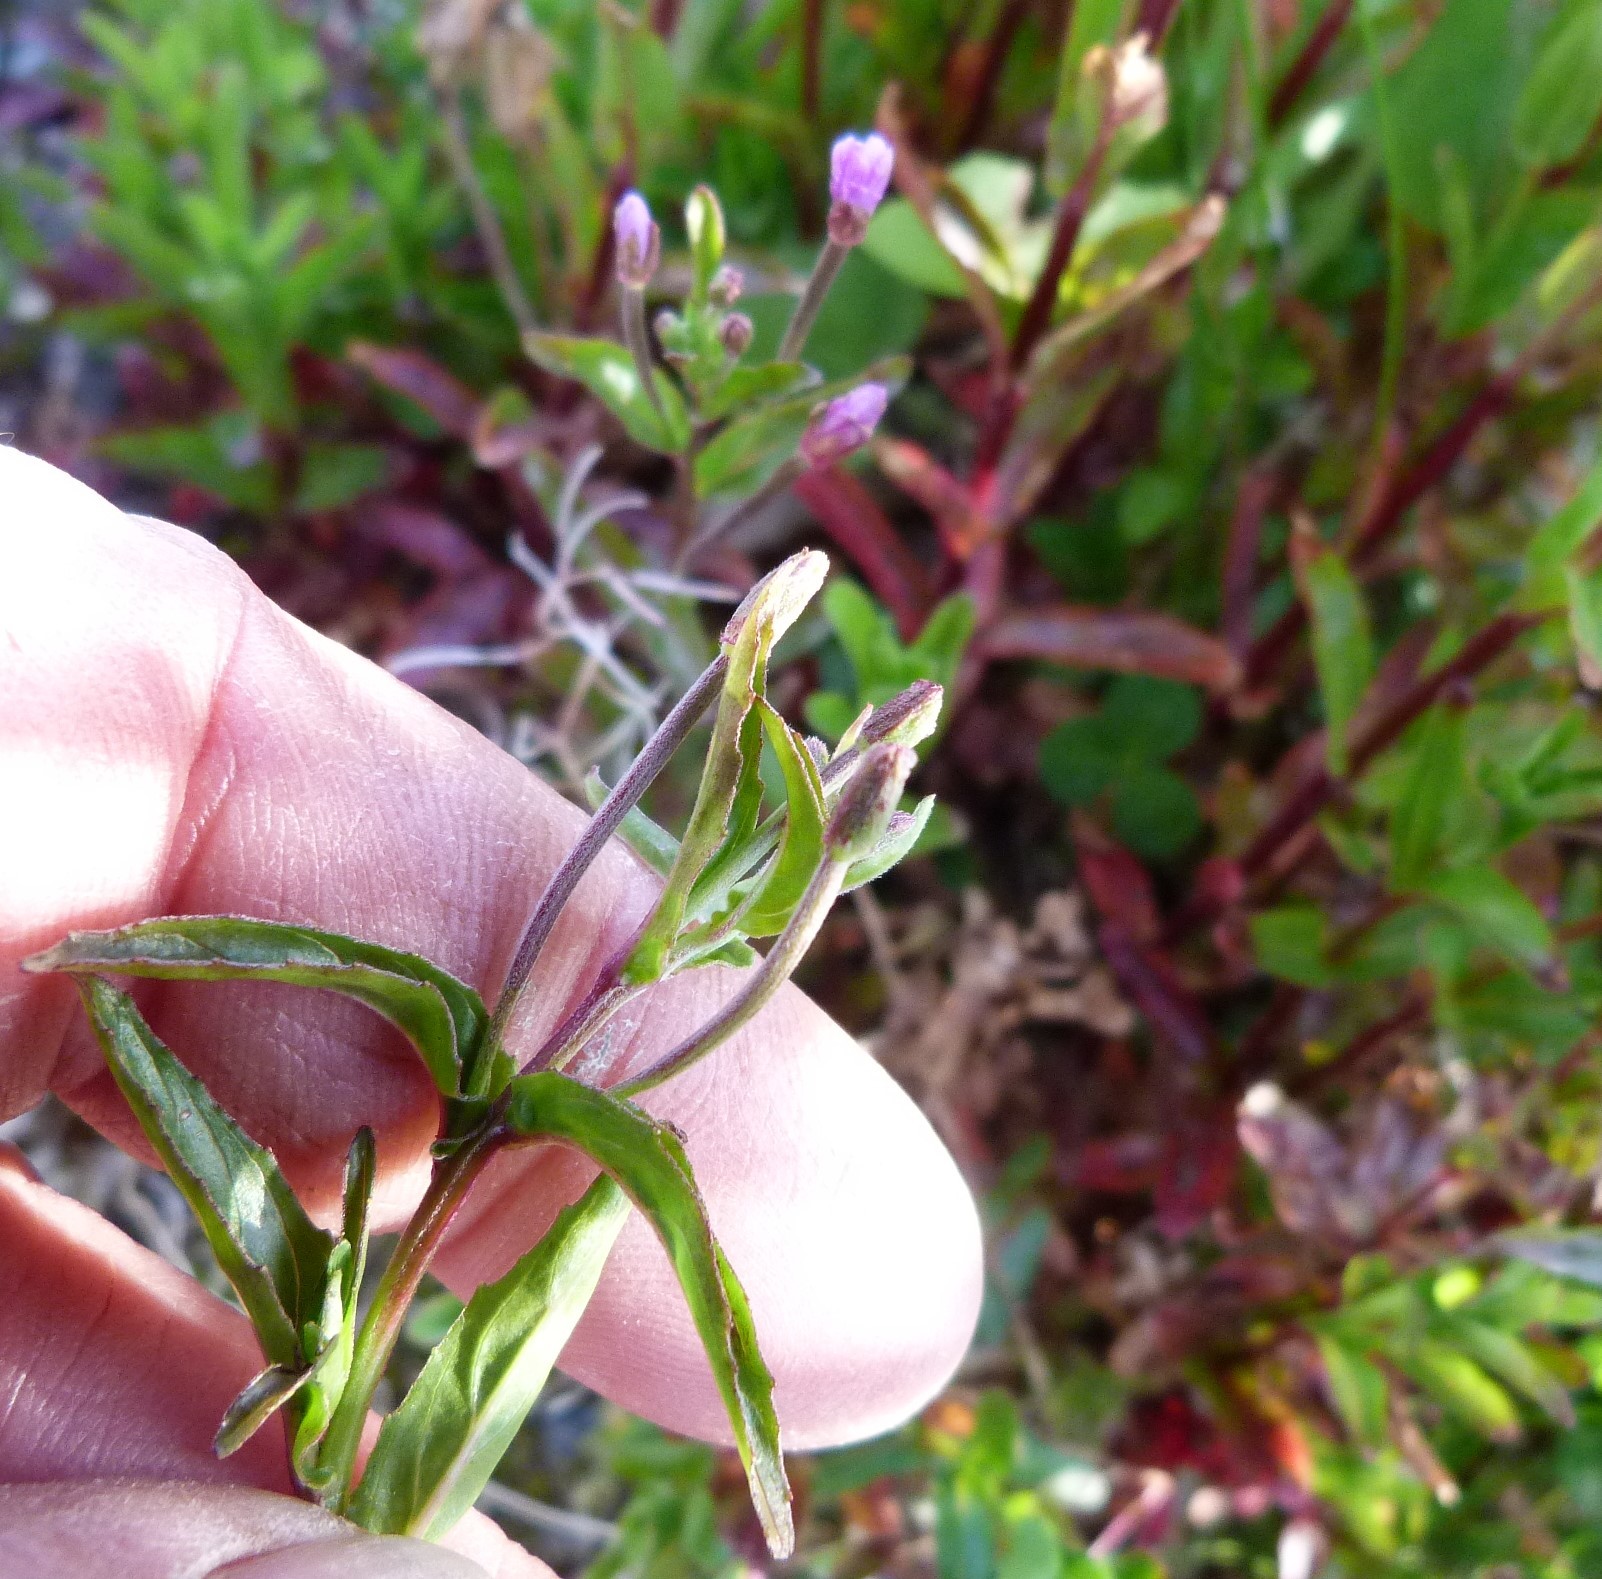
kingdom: Plantae
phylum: Tracheophyta
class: Magnoliopsida
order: Myrtales
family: Onagraceae
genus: Epilobium
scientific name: Epilobium ciliatum
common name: American willowherb
